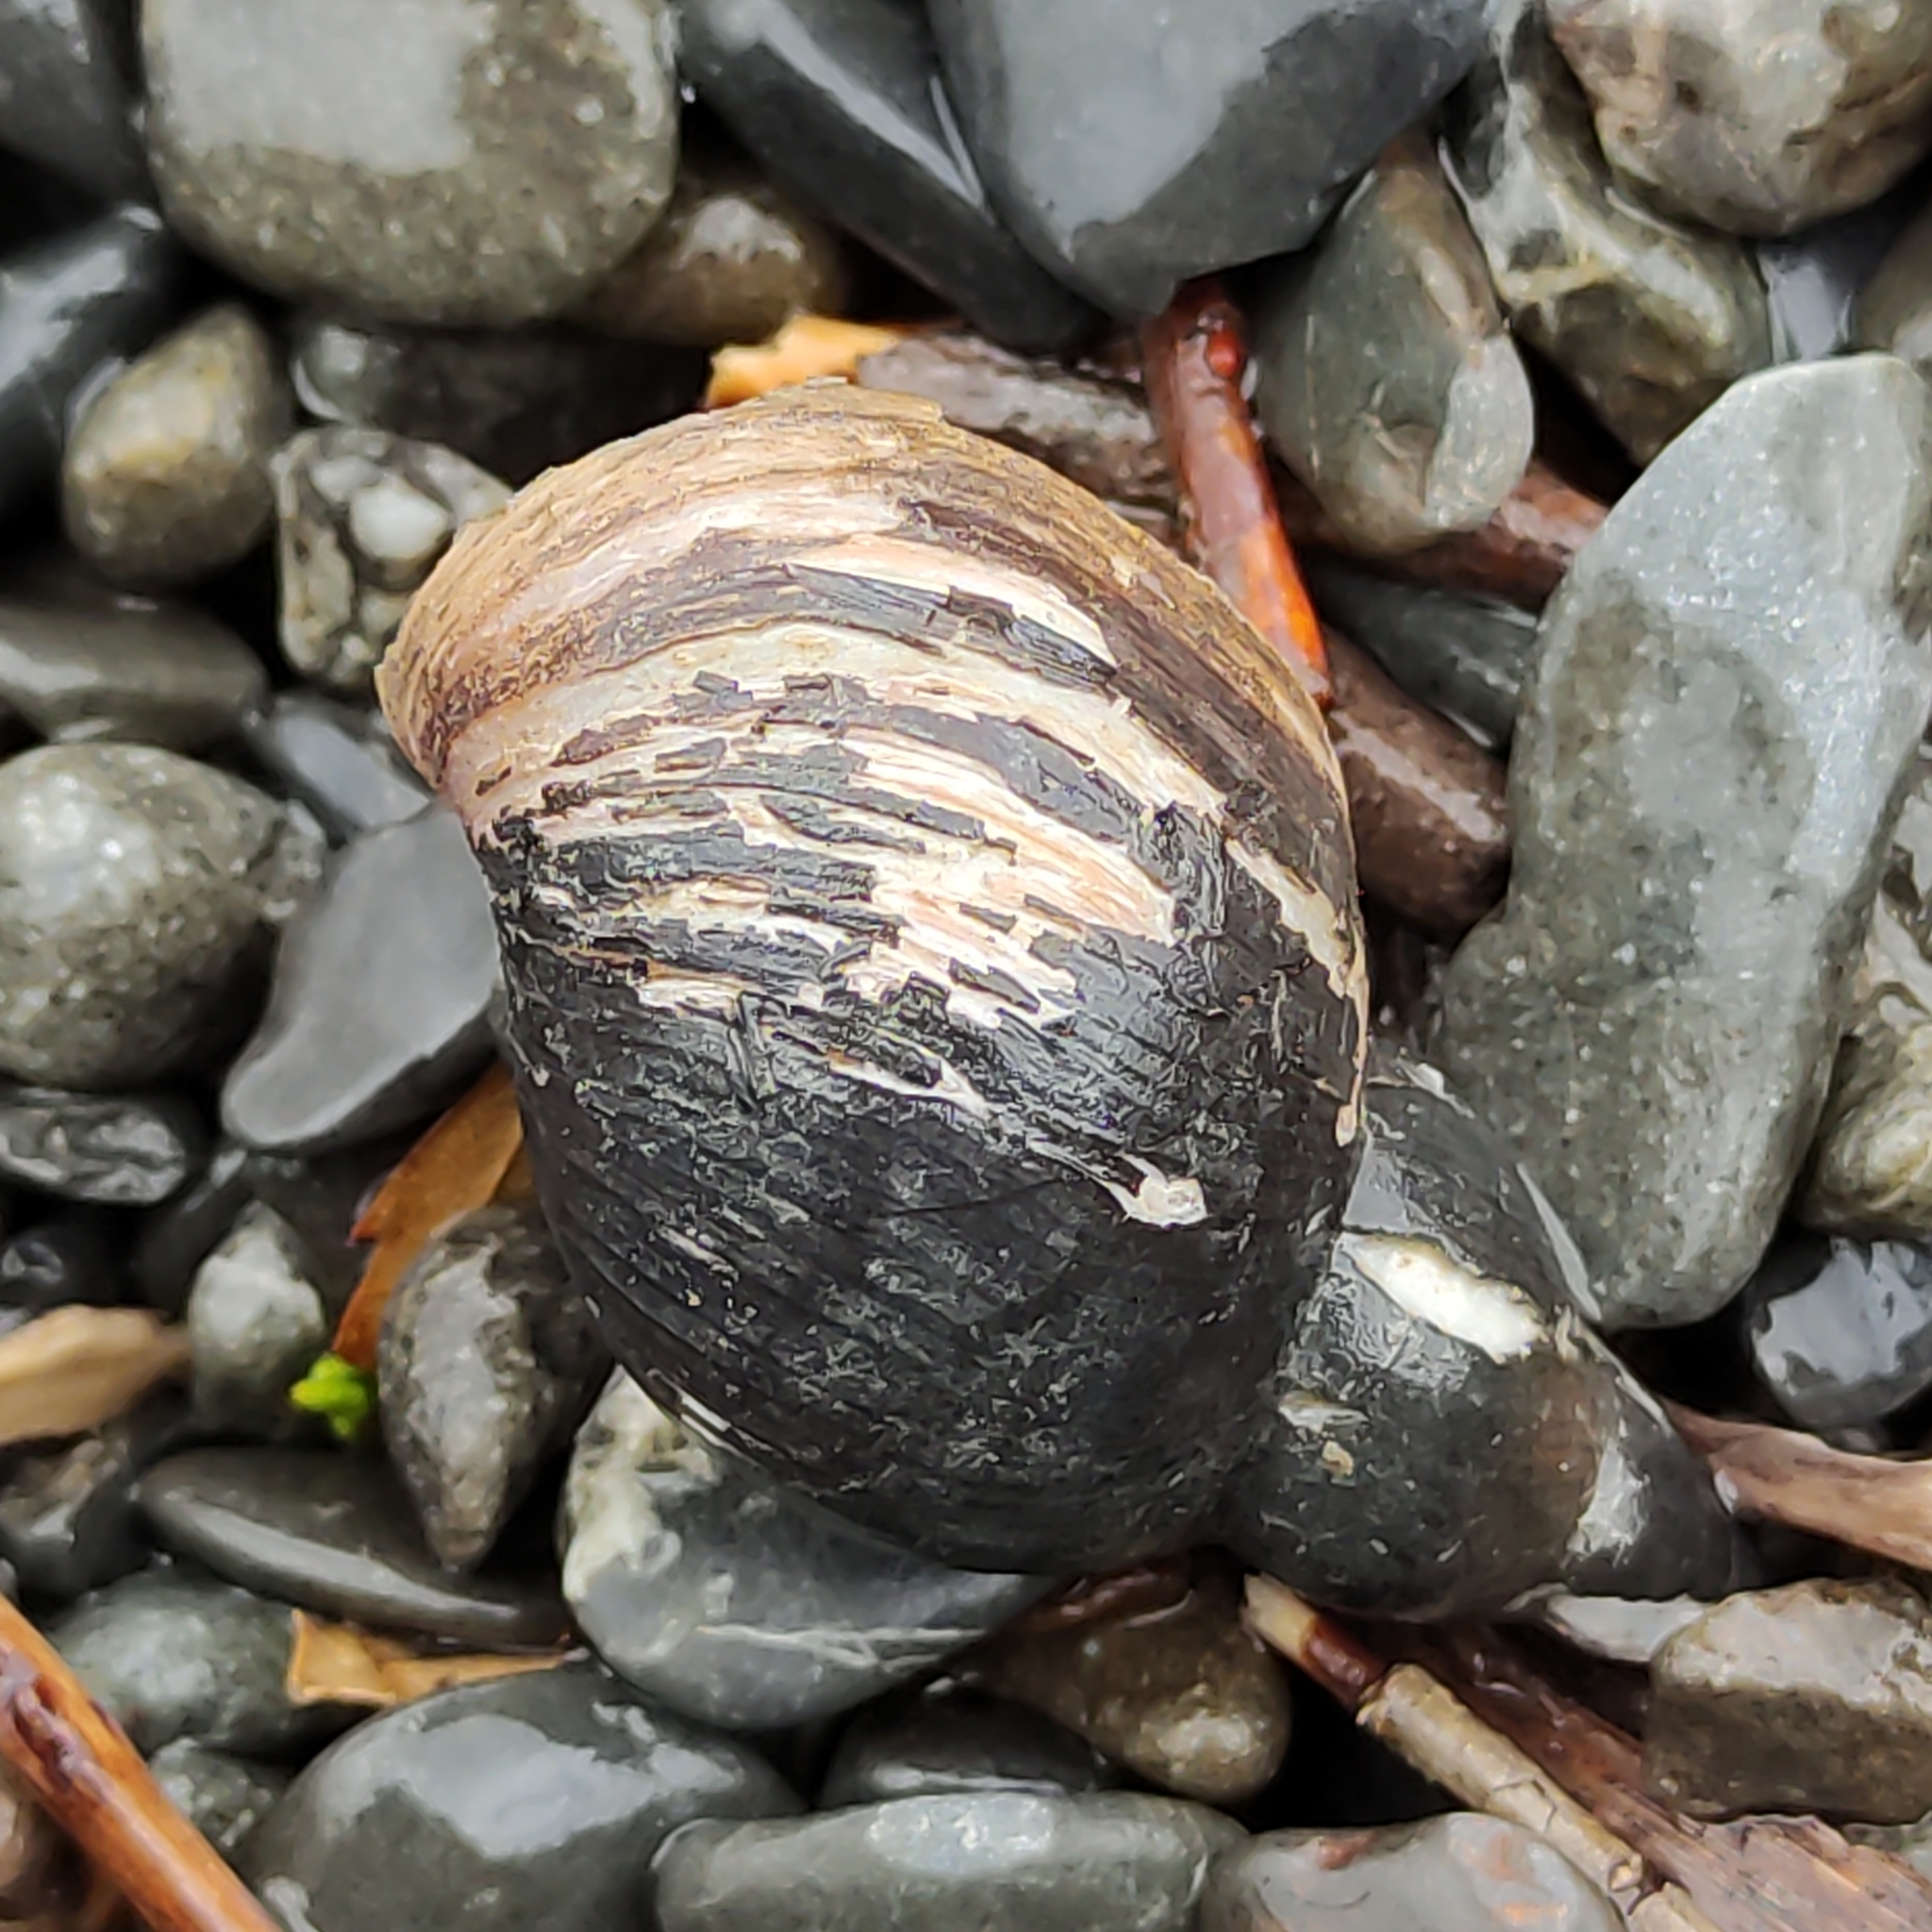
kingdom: Animalia
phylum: Mollusca
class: Gastropoda
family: Lymnaeidae
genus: Lymnaea
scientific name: Lymnaea stagnalis
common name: Great pond snail
